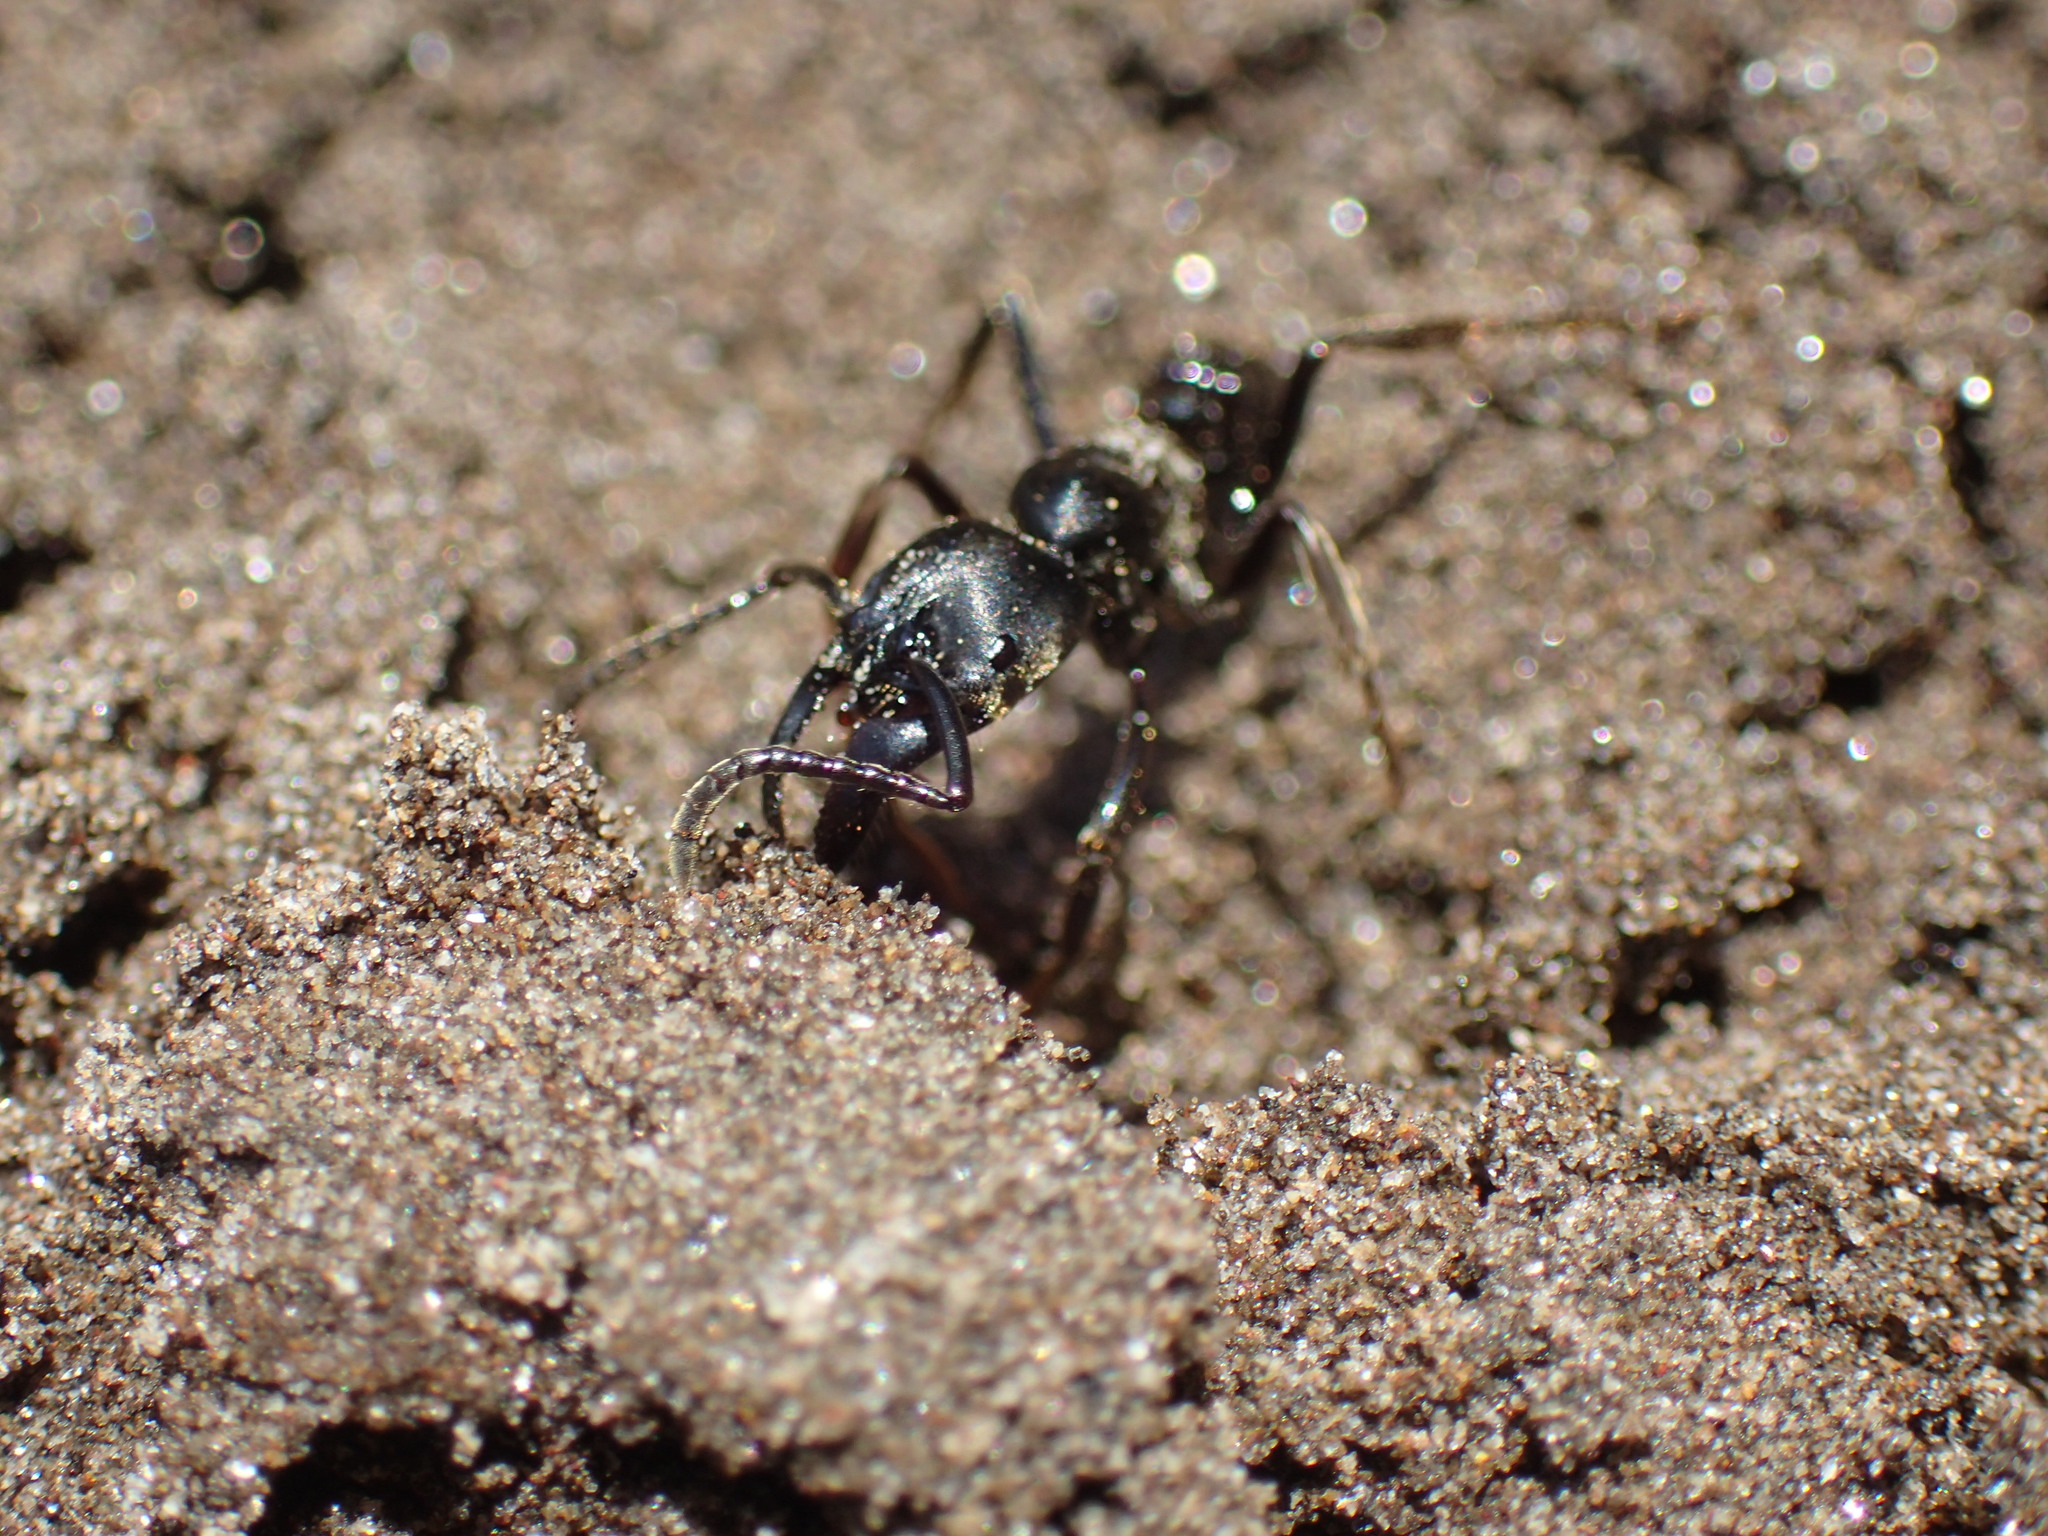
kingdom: Animalia
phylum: Arthropoda
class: Insecta
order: Hymenoptera
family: Formicidae
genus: Paltothyreus
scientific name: Paltothyreus tarsatus
